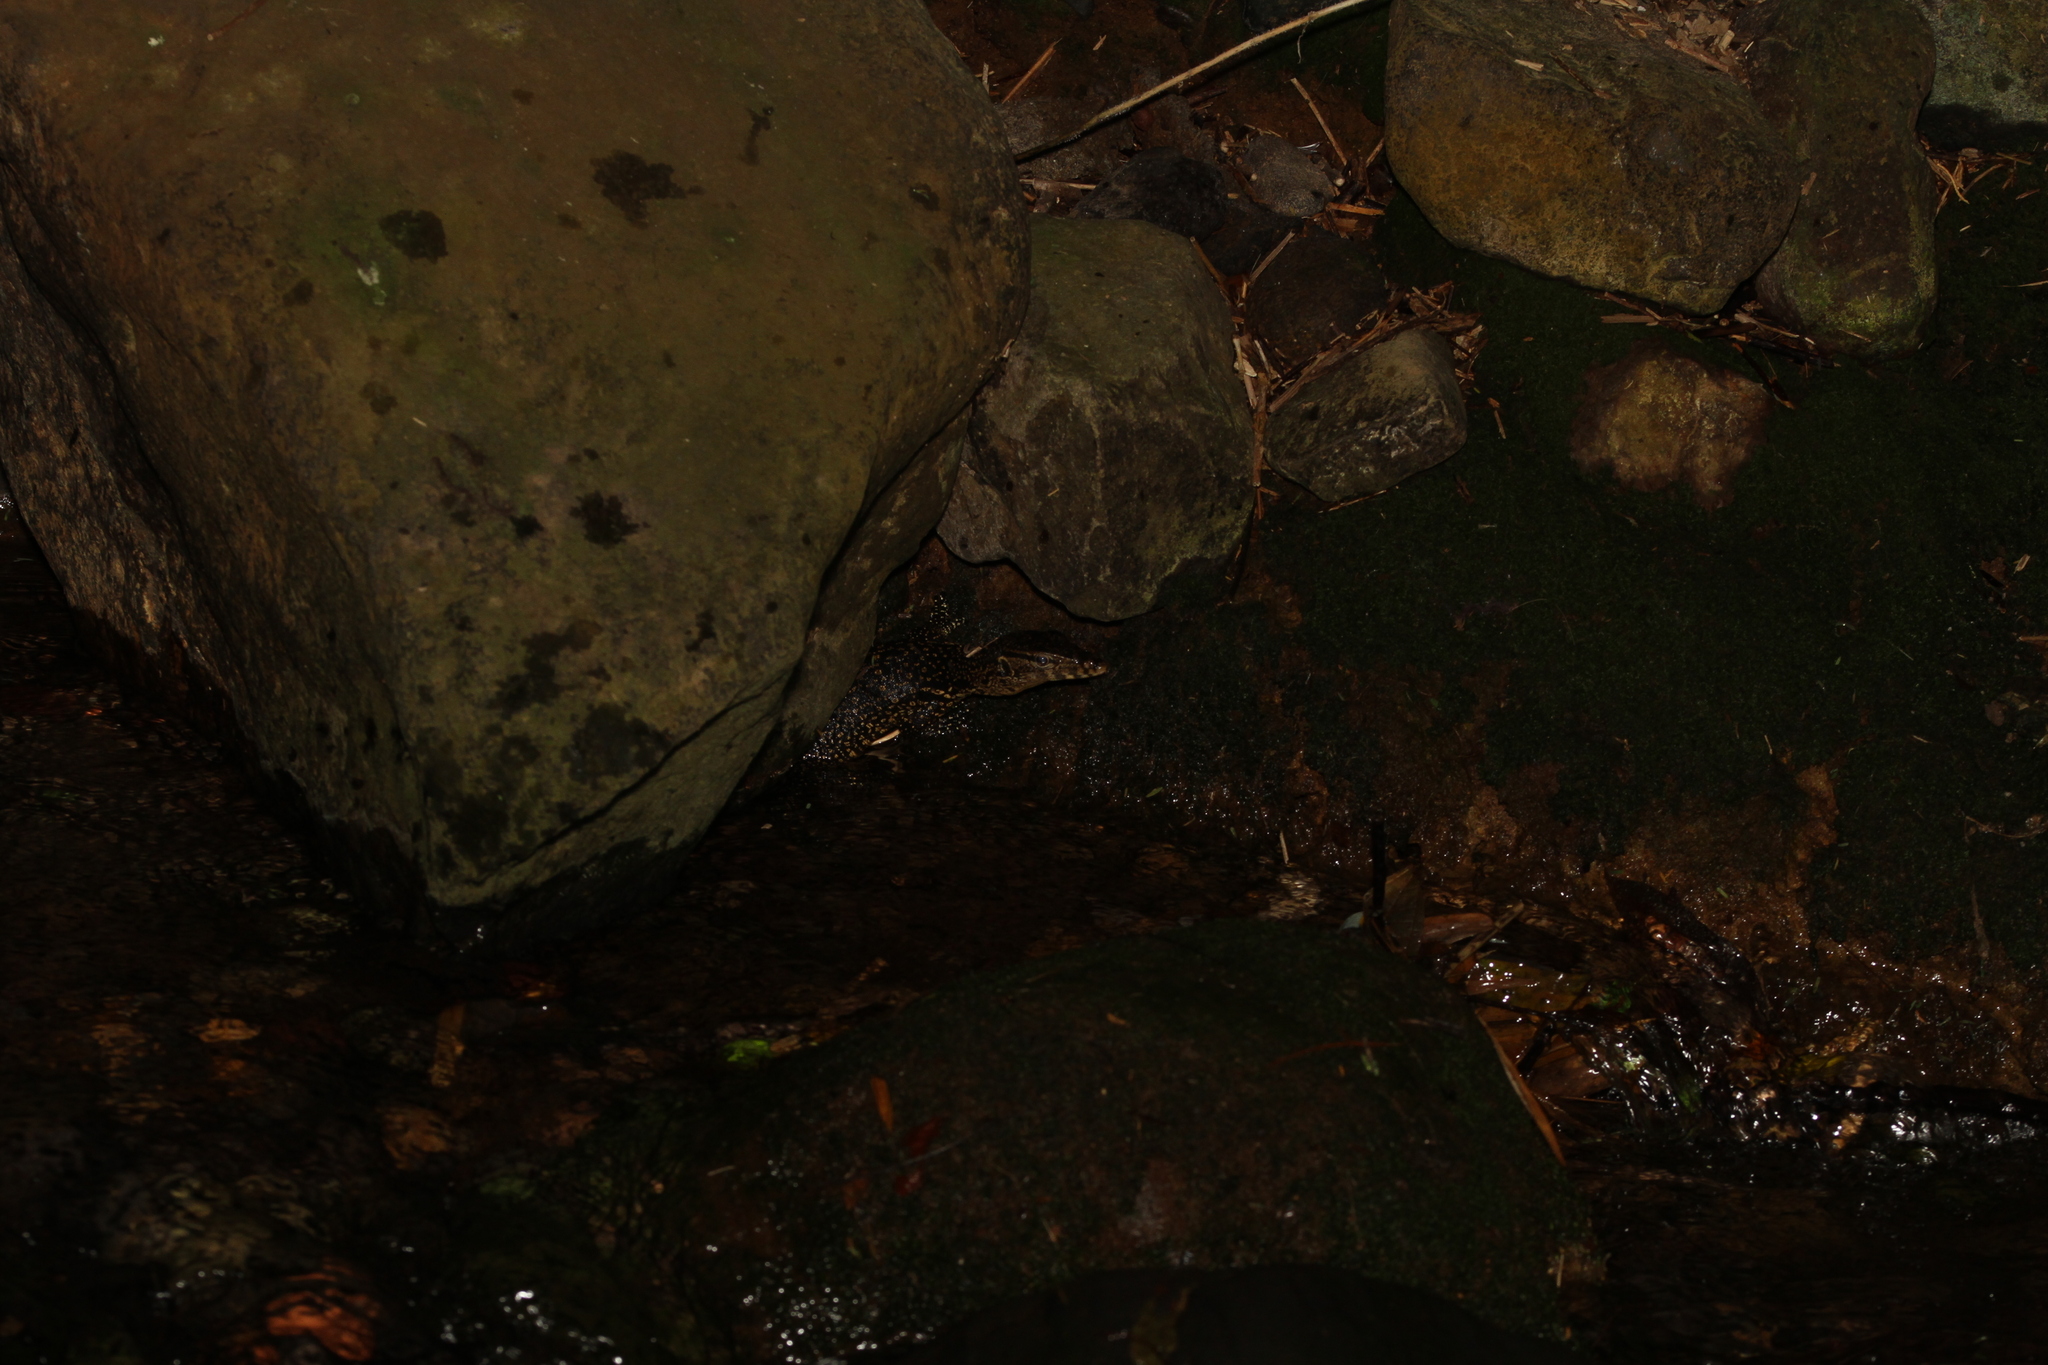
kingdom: Animalia
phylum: Chordata
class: Squamata
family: Varanidae
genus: Varanus
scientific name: Varanus salvator
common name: Common water monitor
